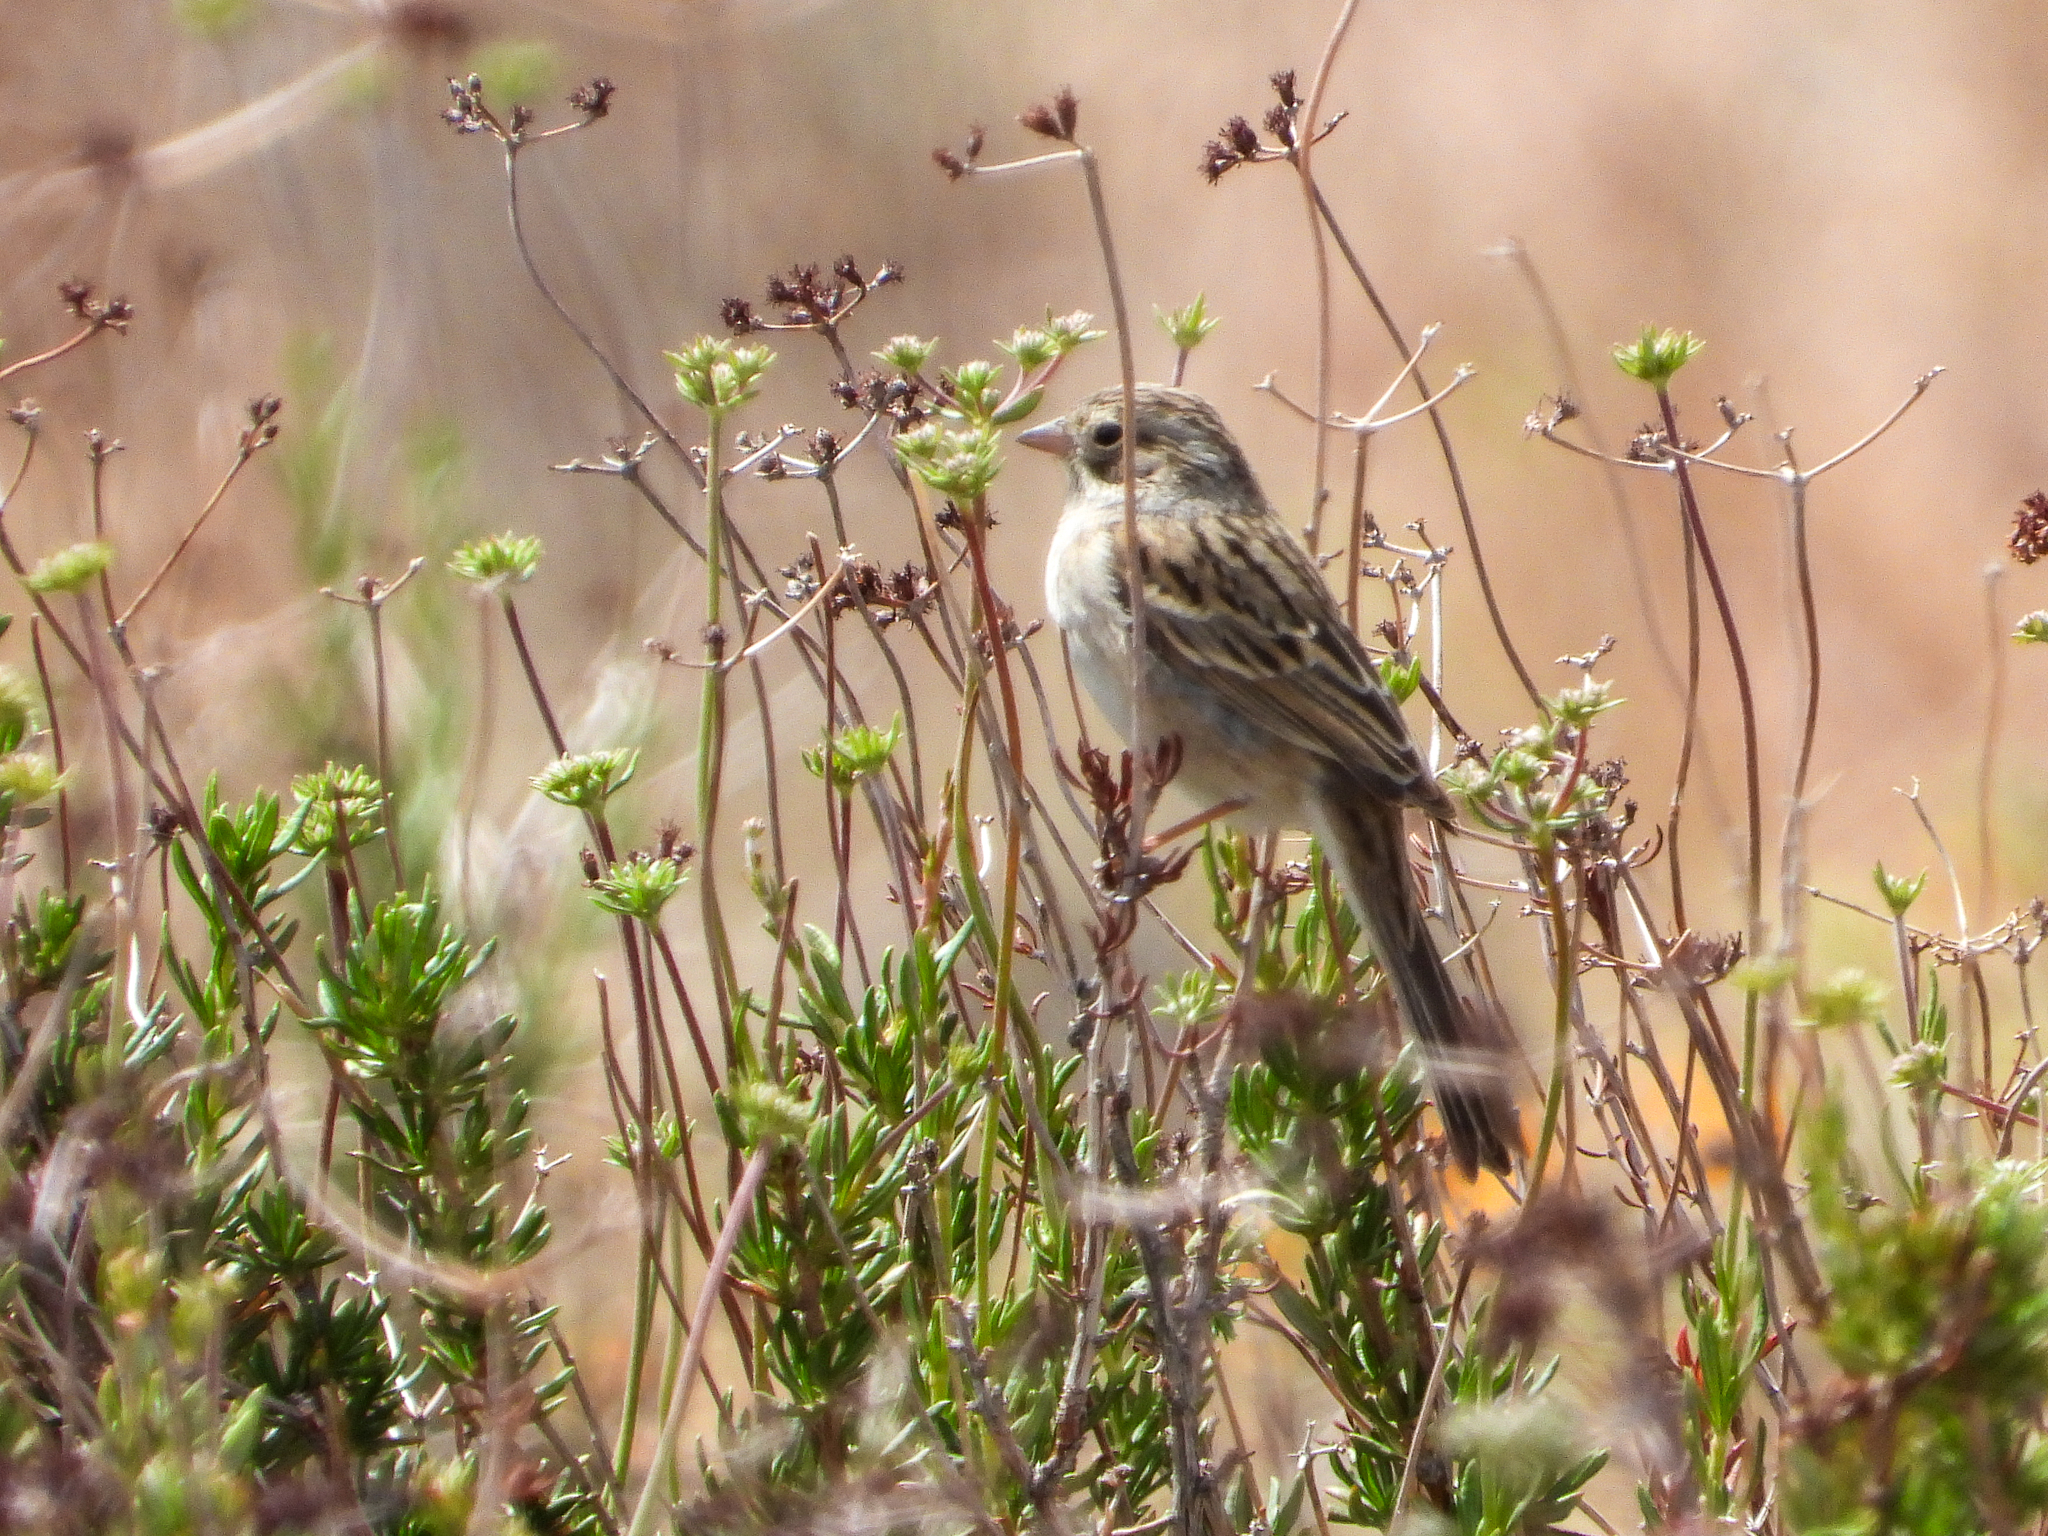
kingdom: Animalia
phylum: Chordata
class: Aves
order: Passeriformes
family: Passerellidae
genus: Spizella
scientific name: Spizella breweri
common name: Brewer's sparrow
